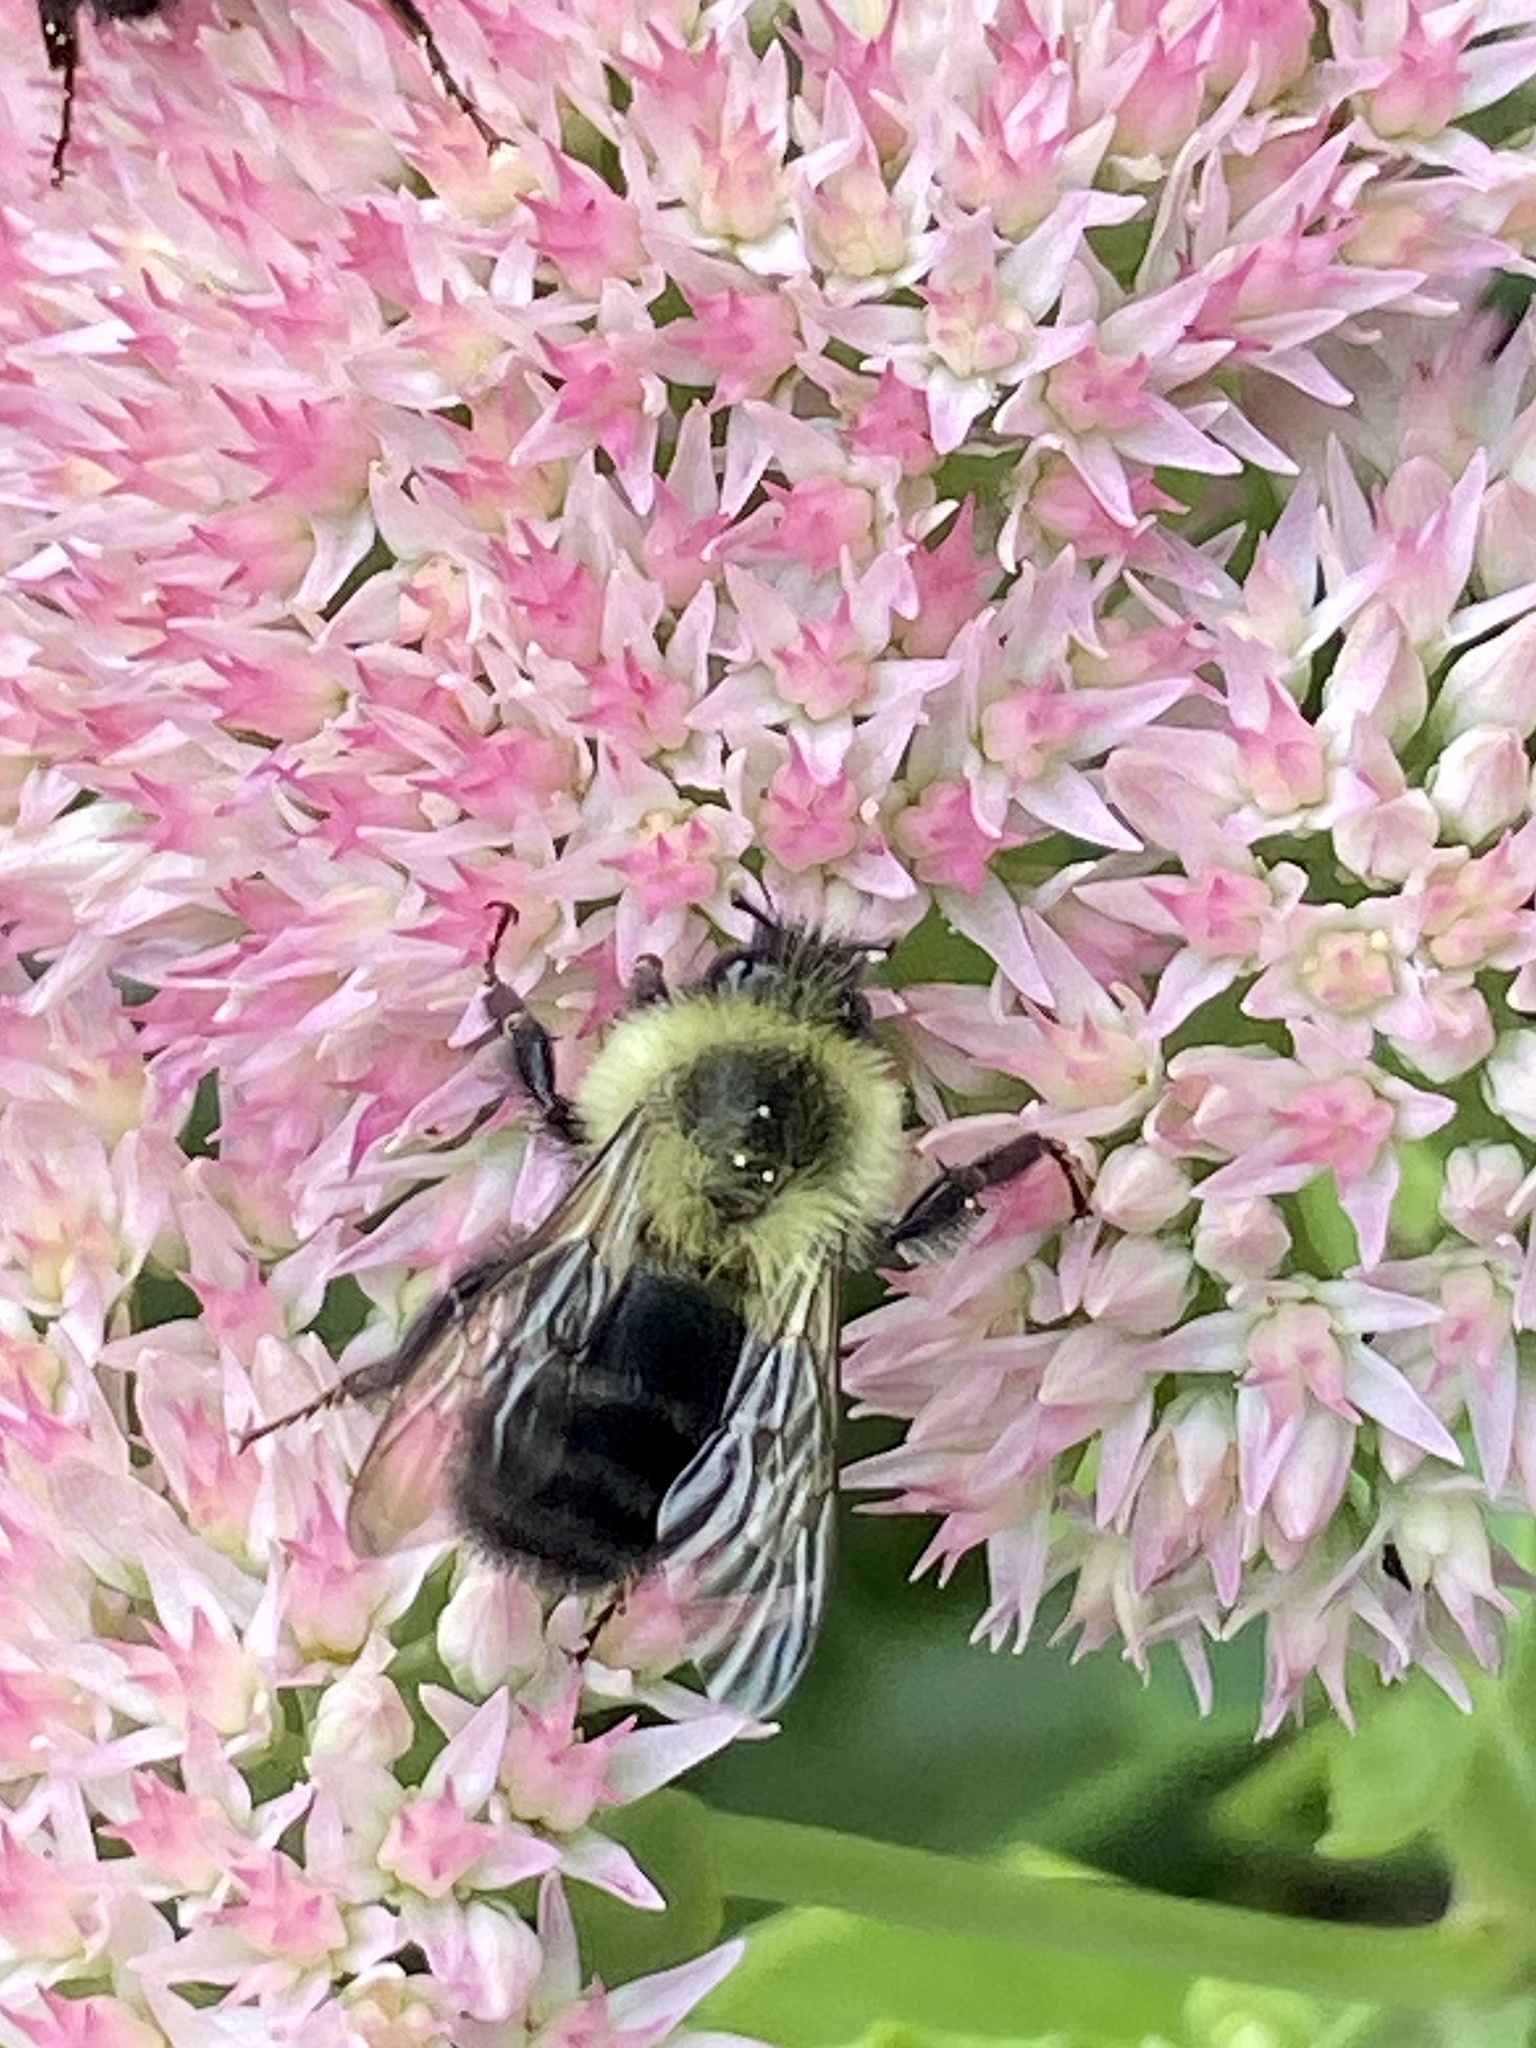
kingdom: Animalia
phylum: Arthropoda
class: Insecta
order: Hymenoptera
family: Apidae
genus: Bombus
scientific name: Bombus impatiens
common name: Common eastern bumble bee
